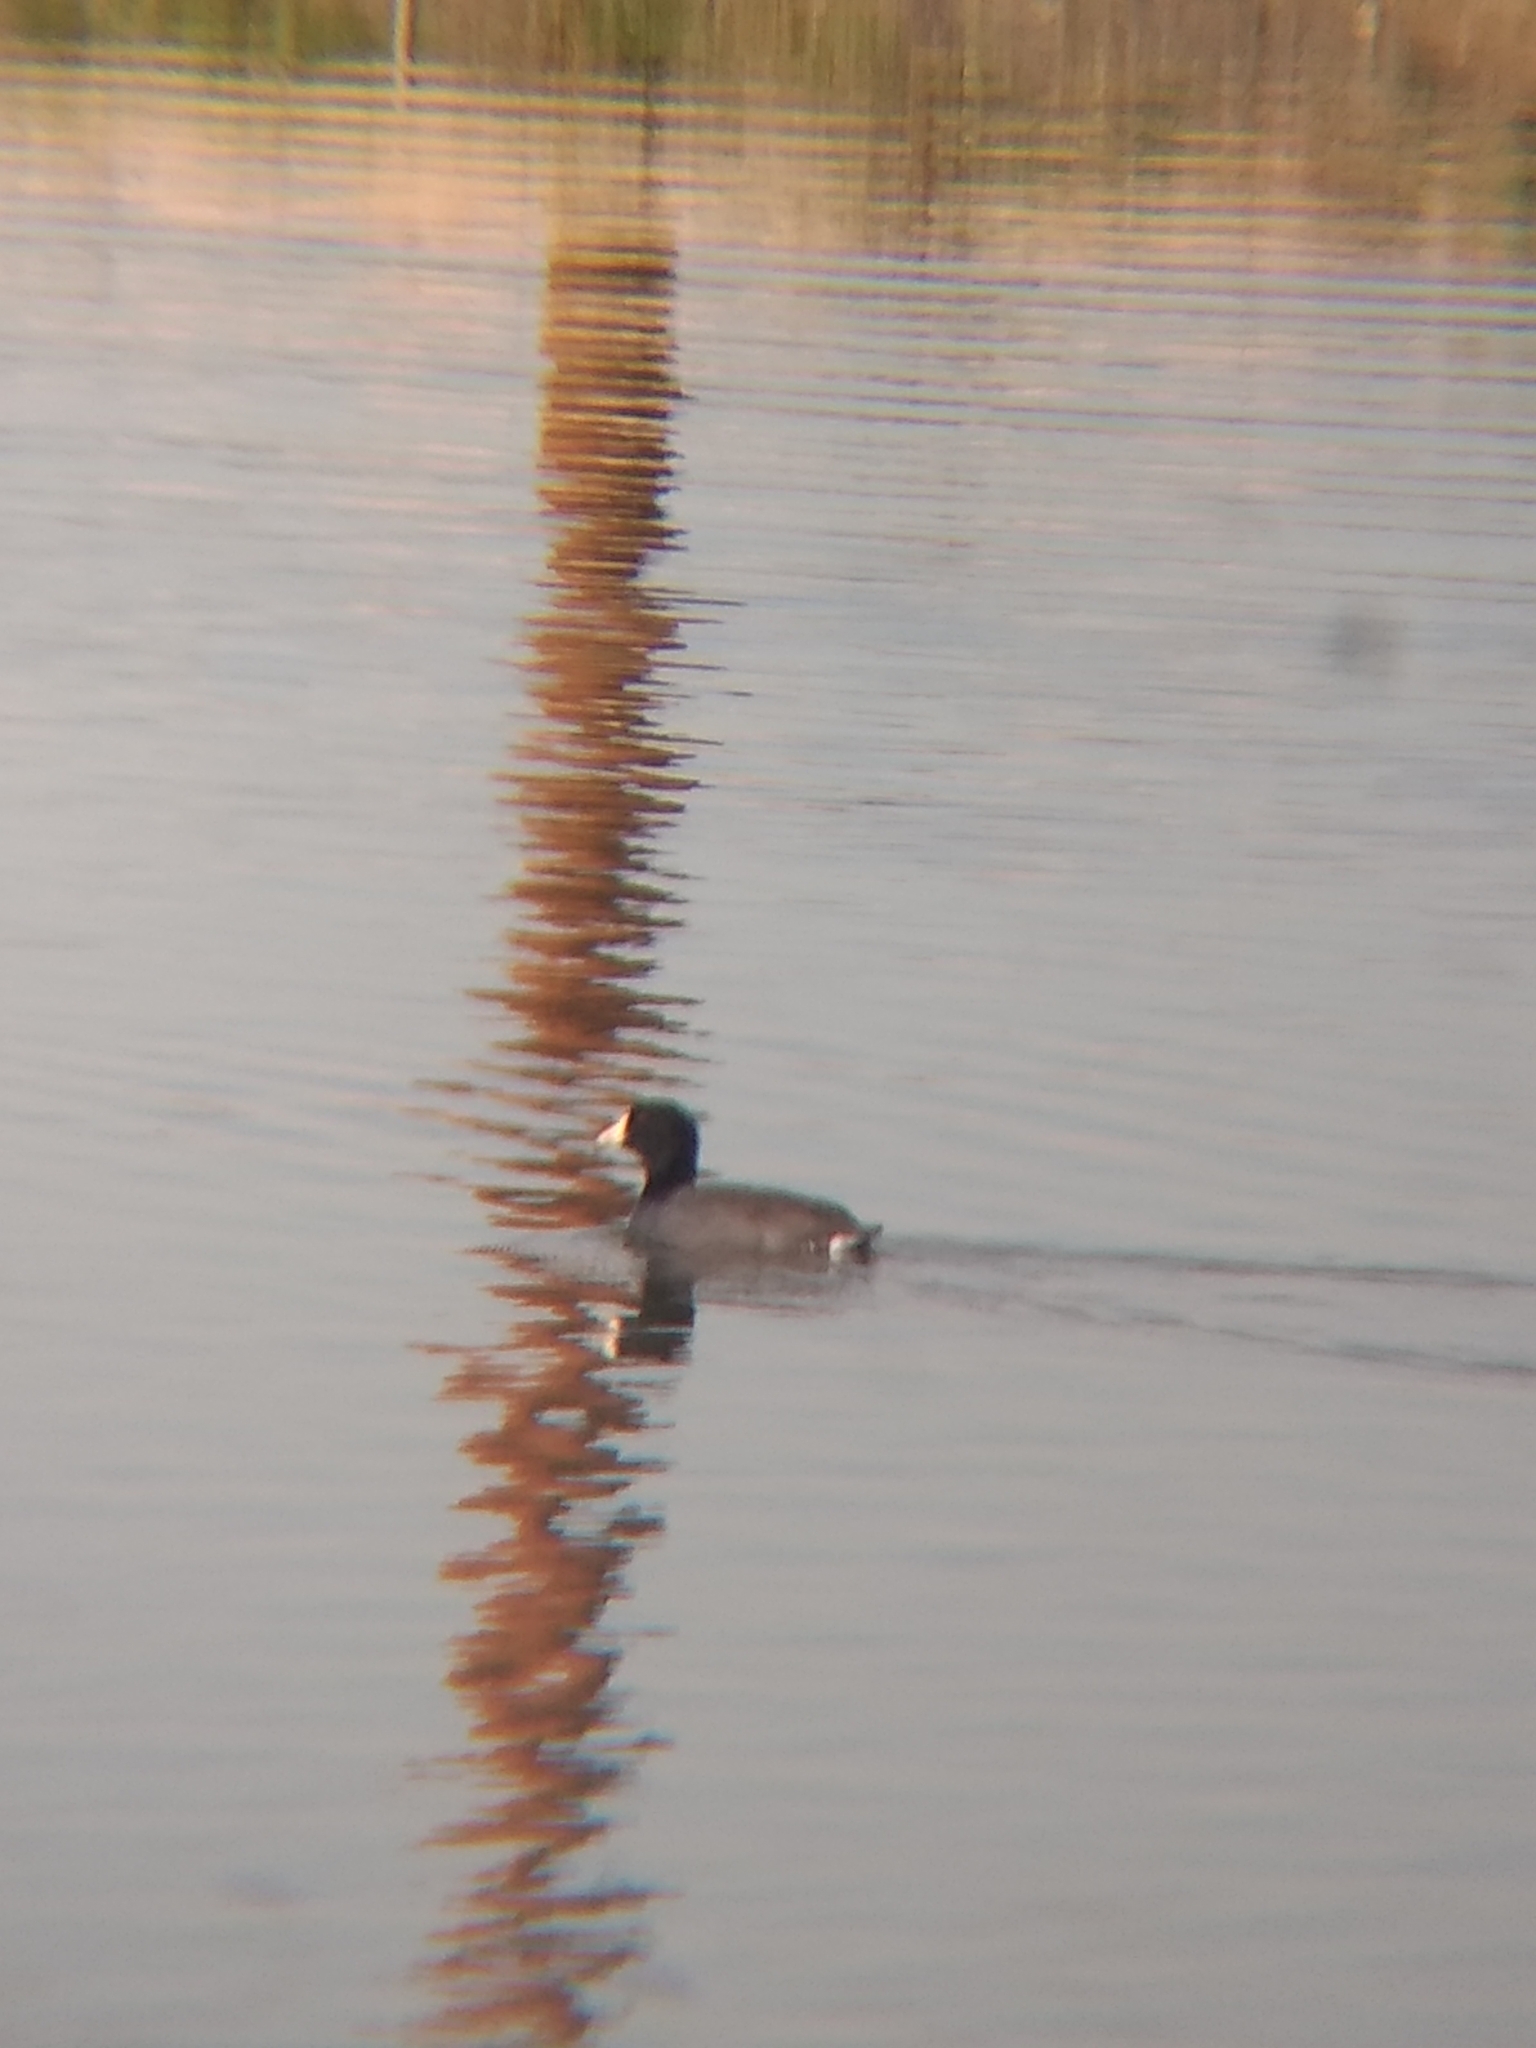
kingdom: Animalia
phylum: Chordata
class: Aves
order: Gruiformes
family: Rallidae
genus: Fulica
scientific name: Fulica americana
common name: American coot
